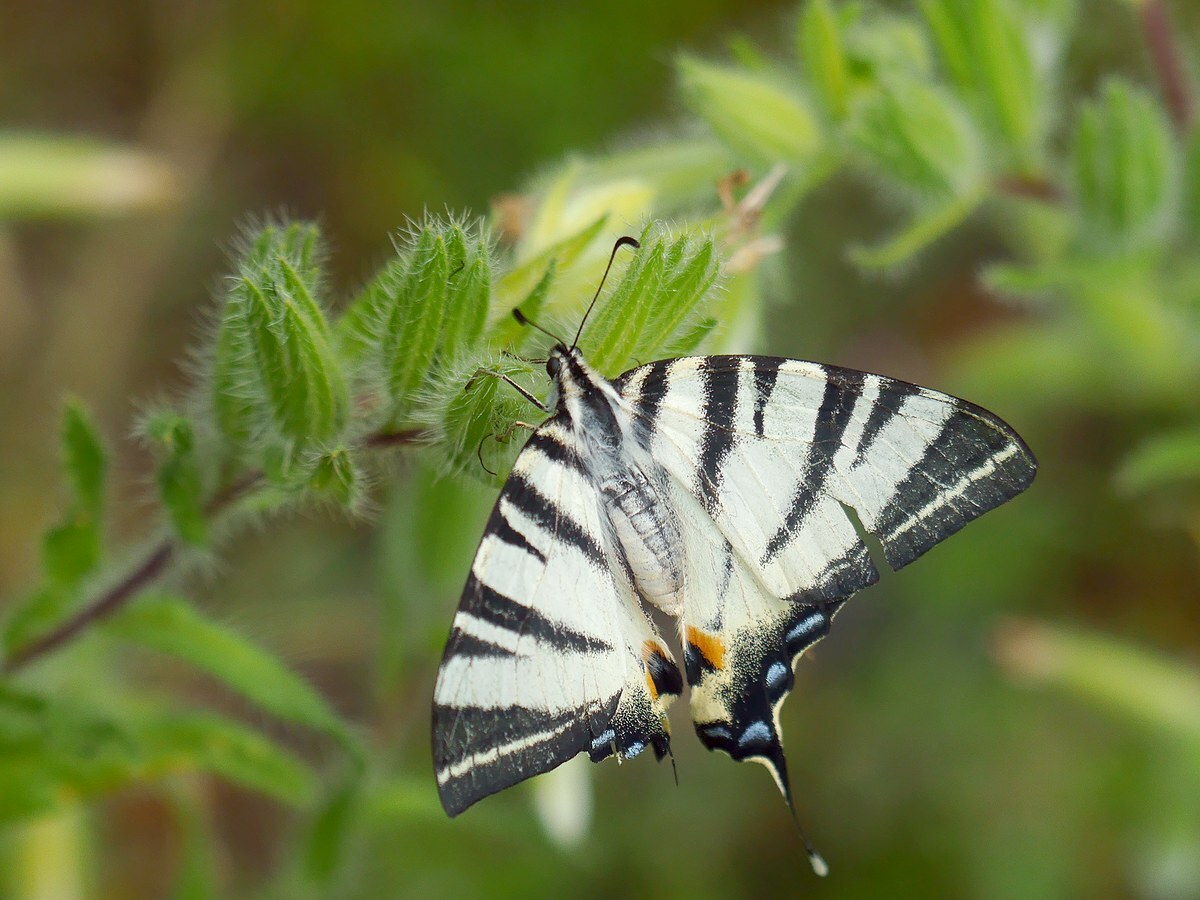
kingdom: Animalia
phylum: Arthropoda
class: Insecta
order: Lepidoptera
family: Papilionidae
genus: Iphiclides
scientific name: Iphiclides podalirius
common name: Scarce swallowtail
